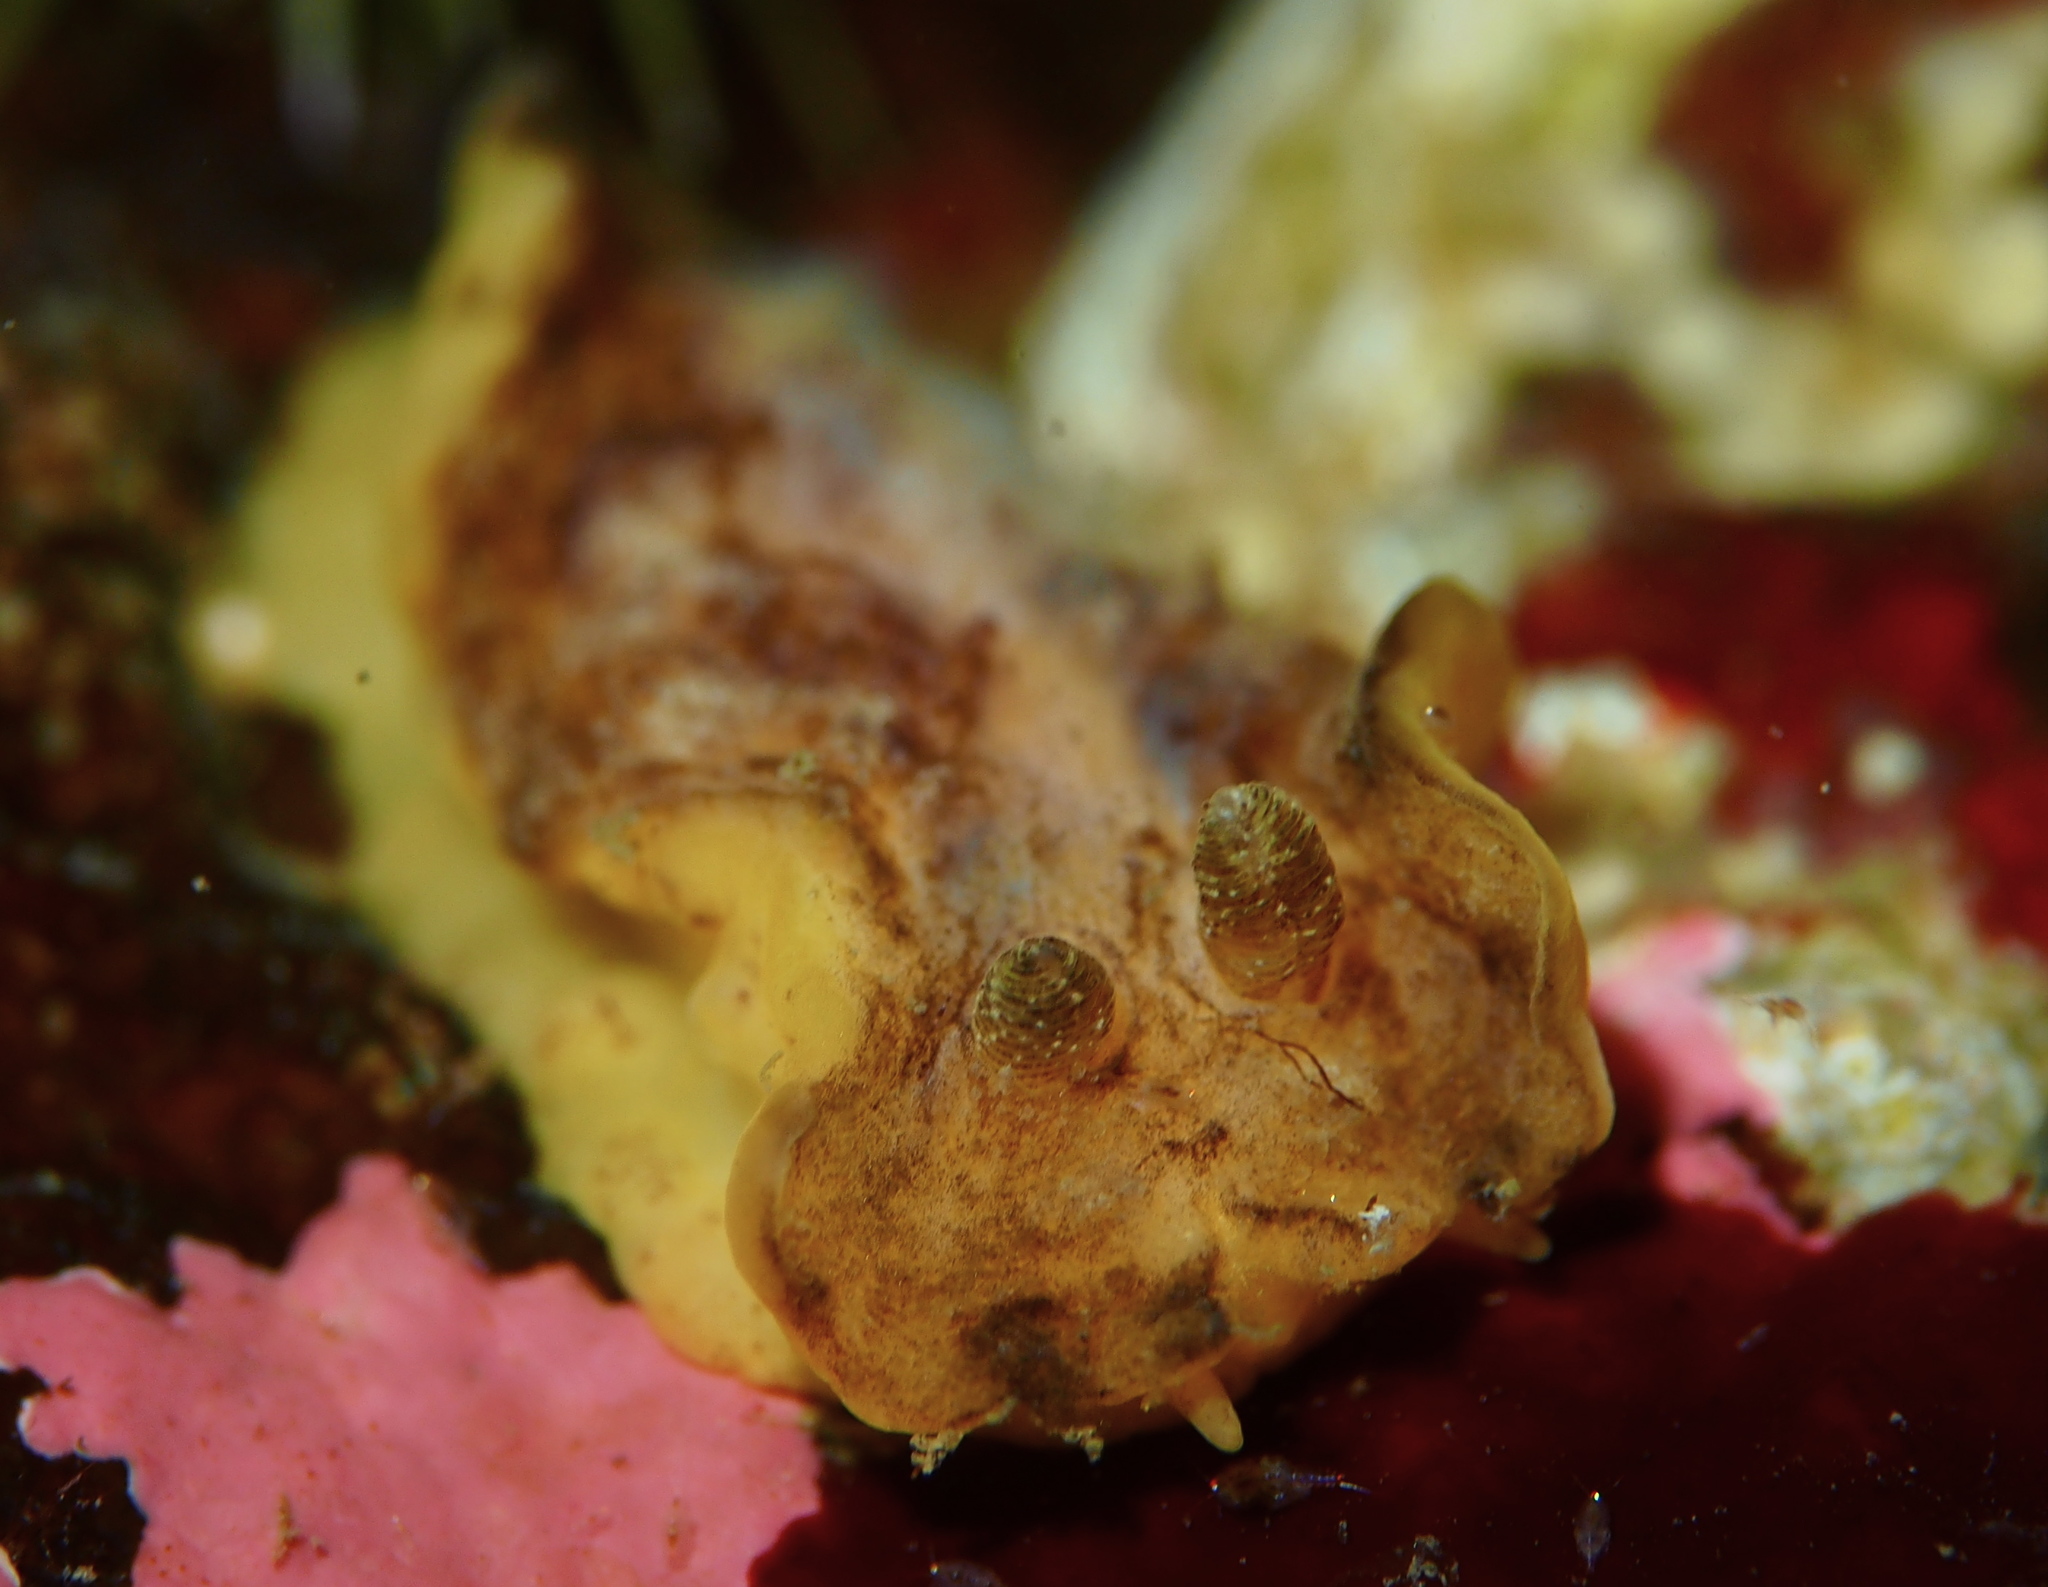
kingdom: Animalia
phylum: Mollusca
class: Gastropoda
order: Nudibranchia
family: Discodorididae
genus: Geitodoris
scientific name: Geitodoris planata
